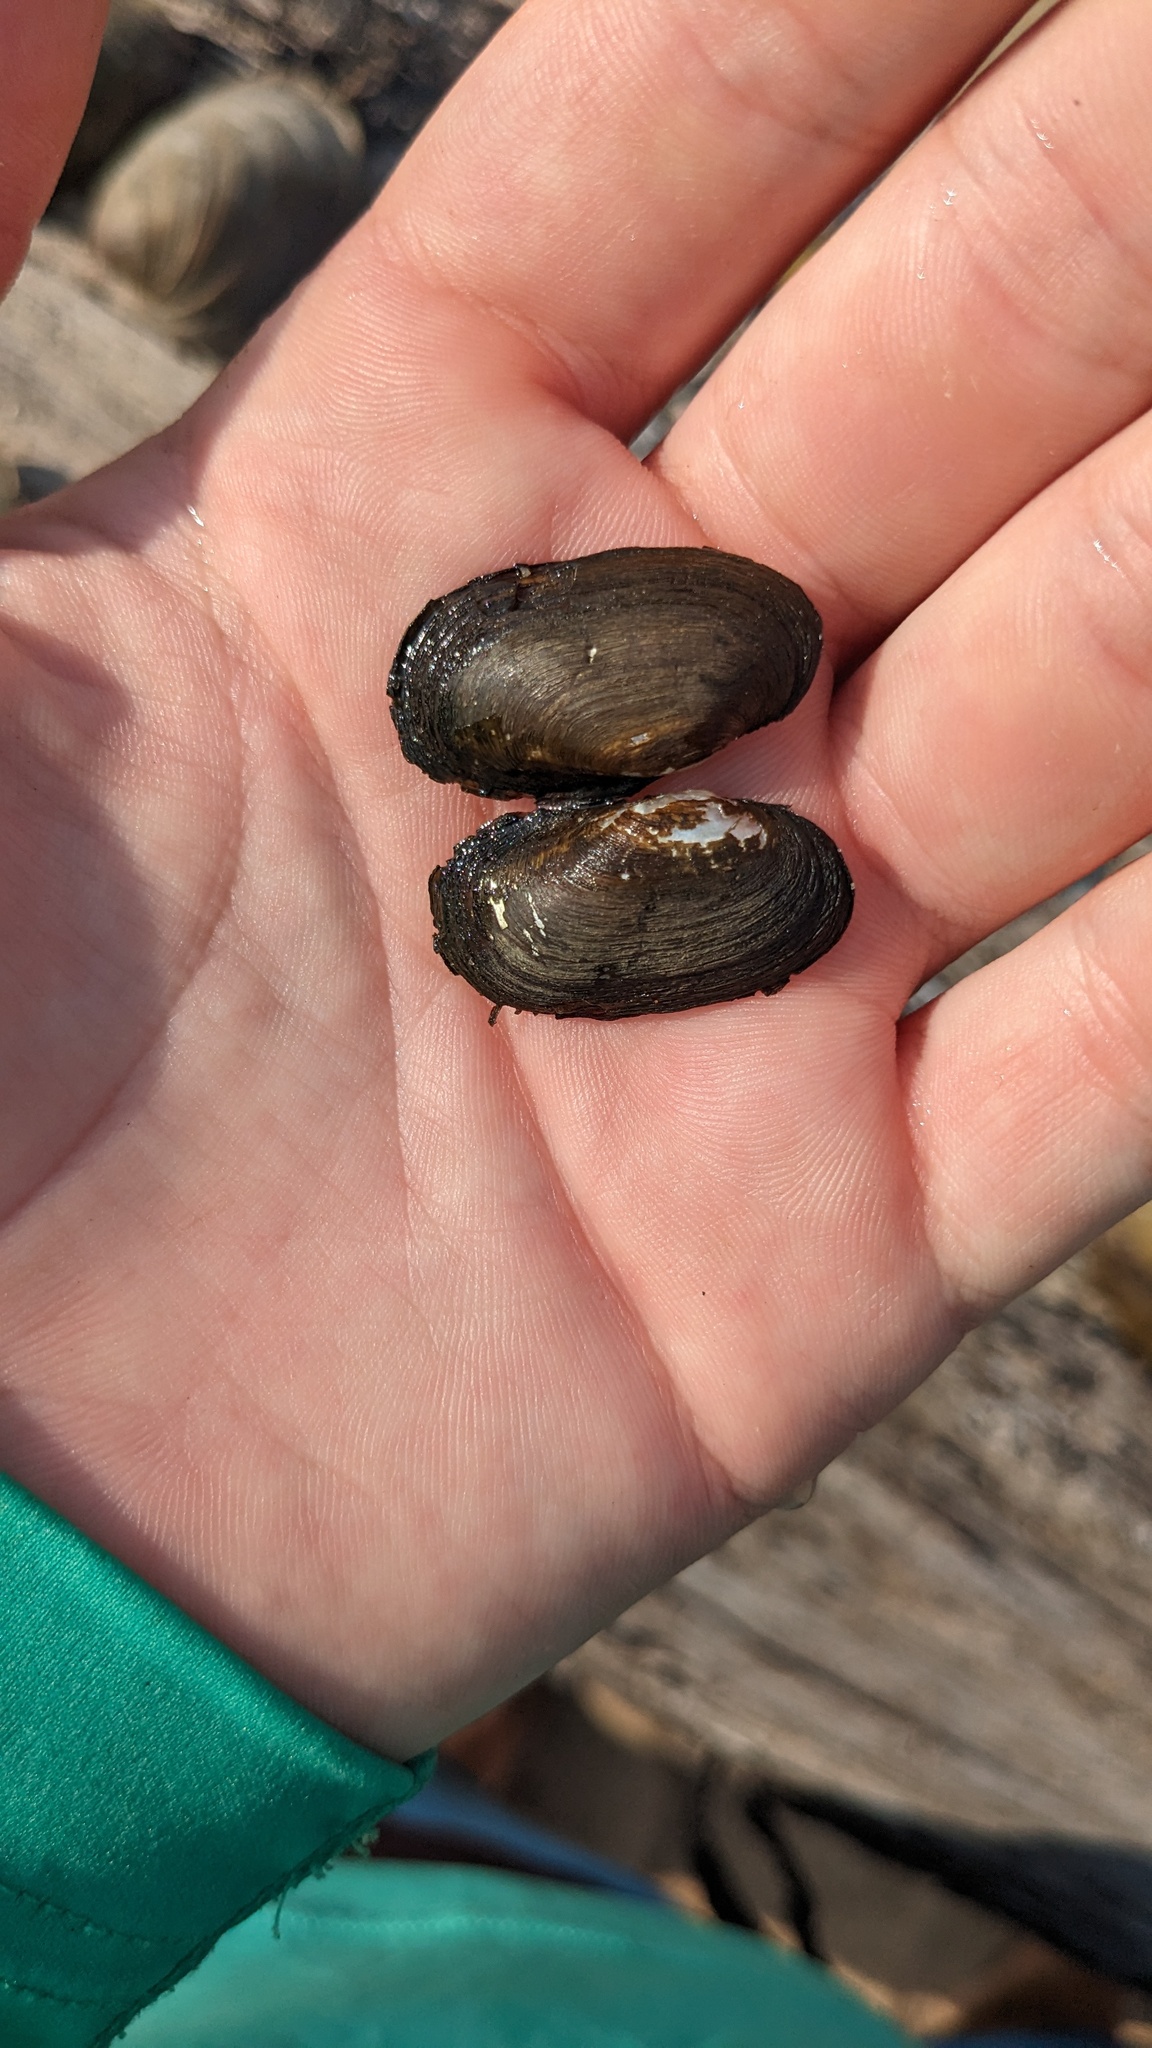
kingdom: Animalia
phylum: Mollusca
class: Bivalvia
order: Unionida
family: Unionidae
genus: Toxolasma
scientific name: Toxolasma parvum
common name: Lilliput
